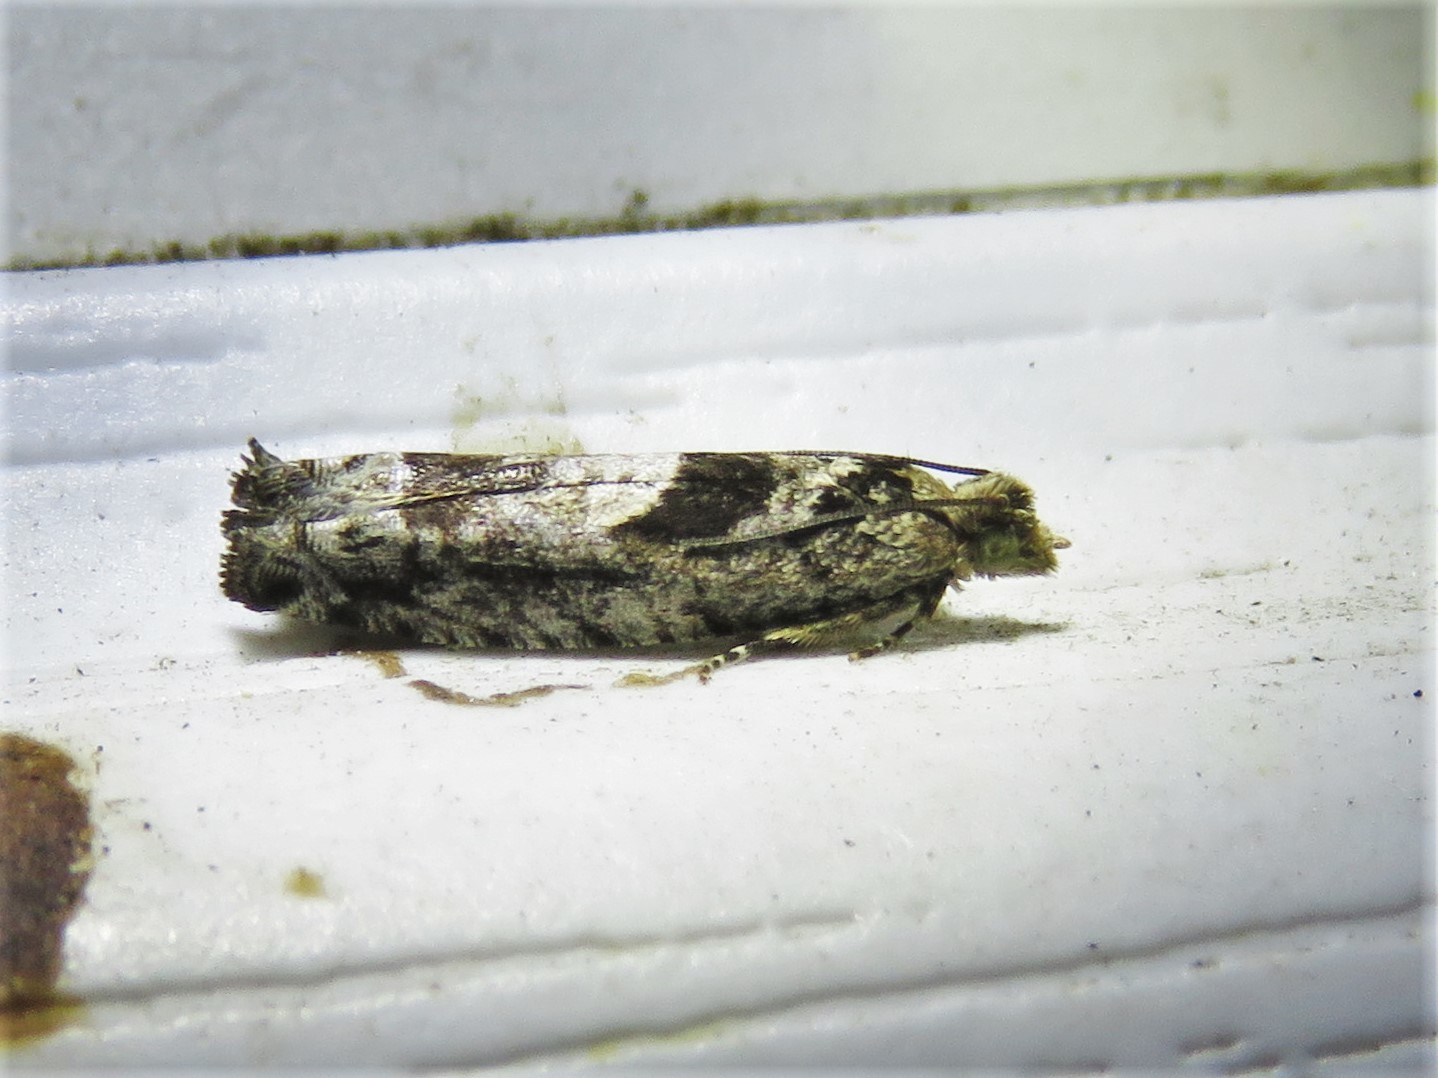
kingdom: Animalia
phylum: Arthropoda
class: Insecta
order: Lepidoptera
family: Tortricidae
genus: Pseudexentera
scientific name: Pseudexentera hodsoni
